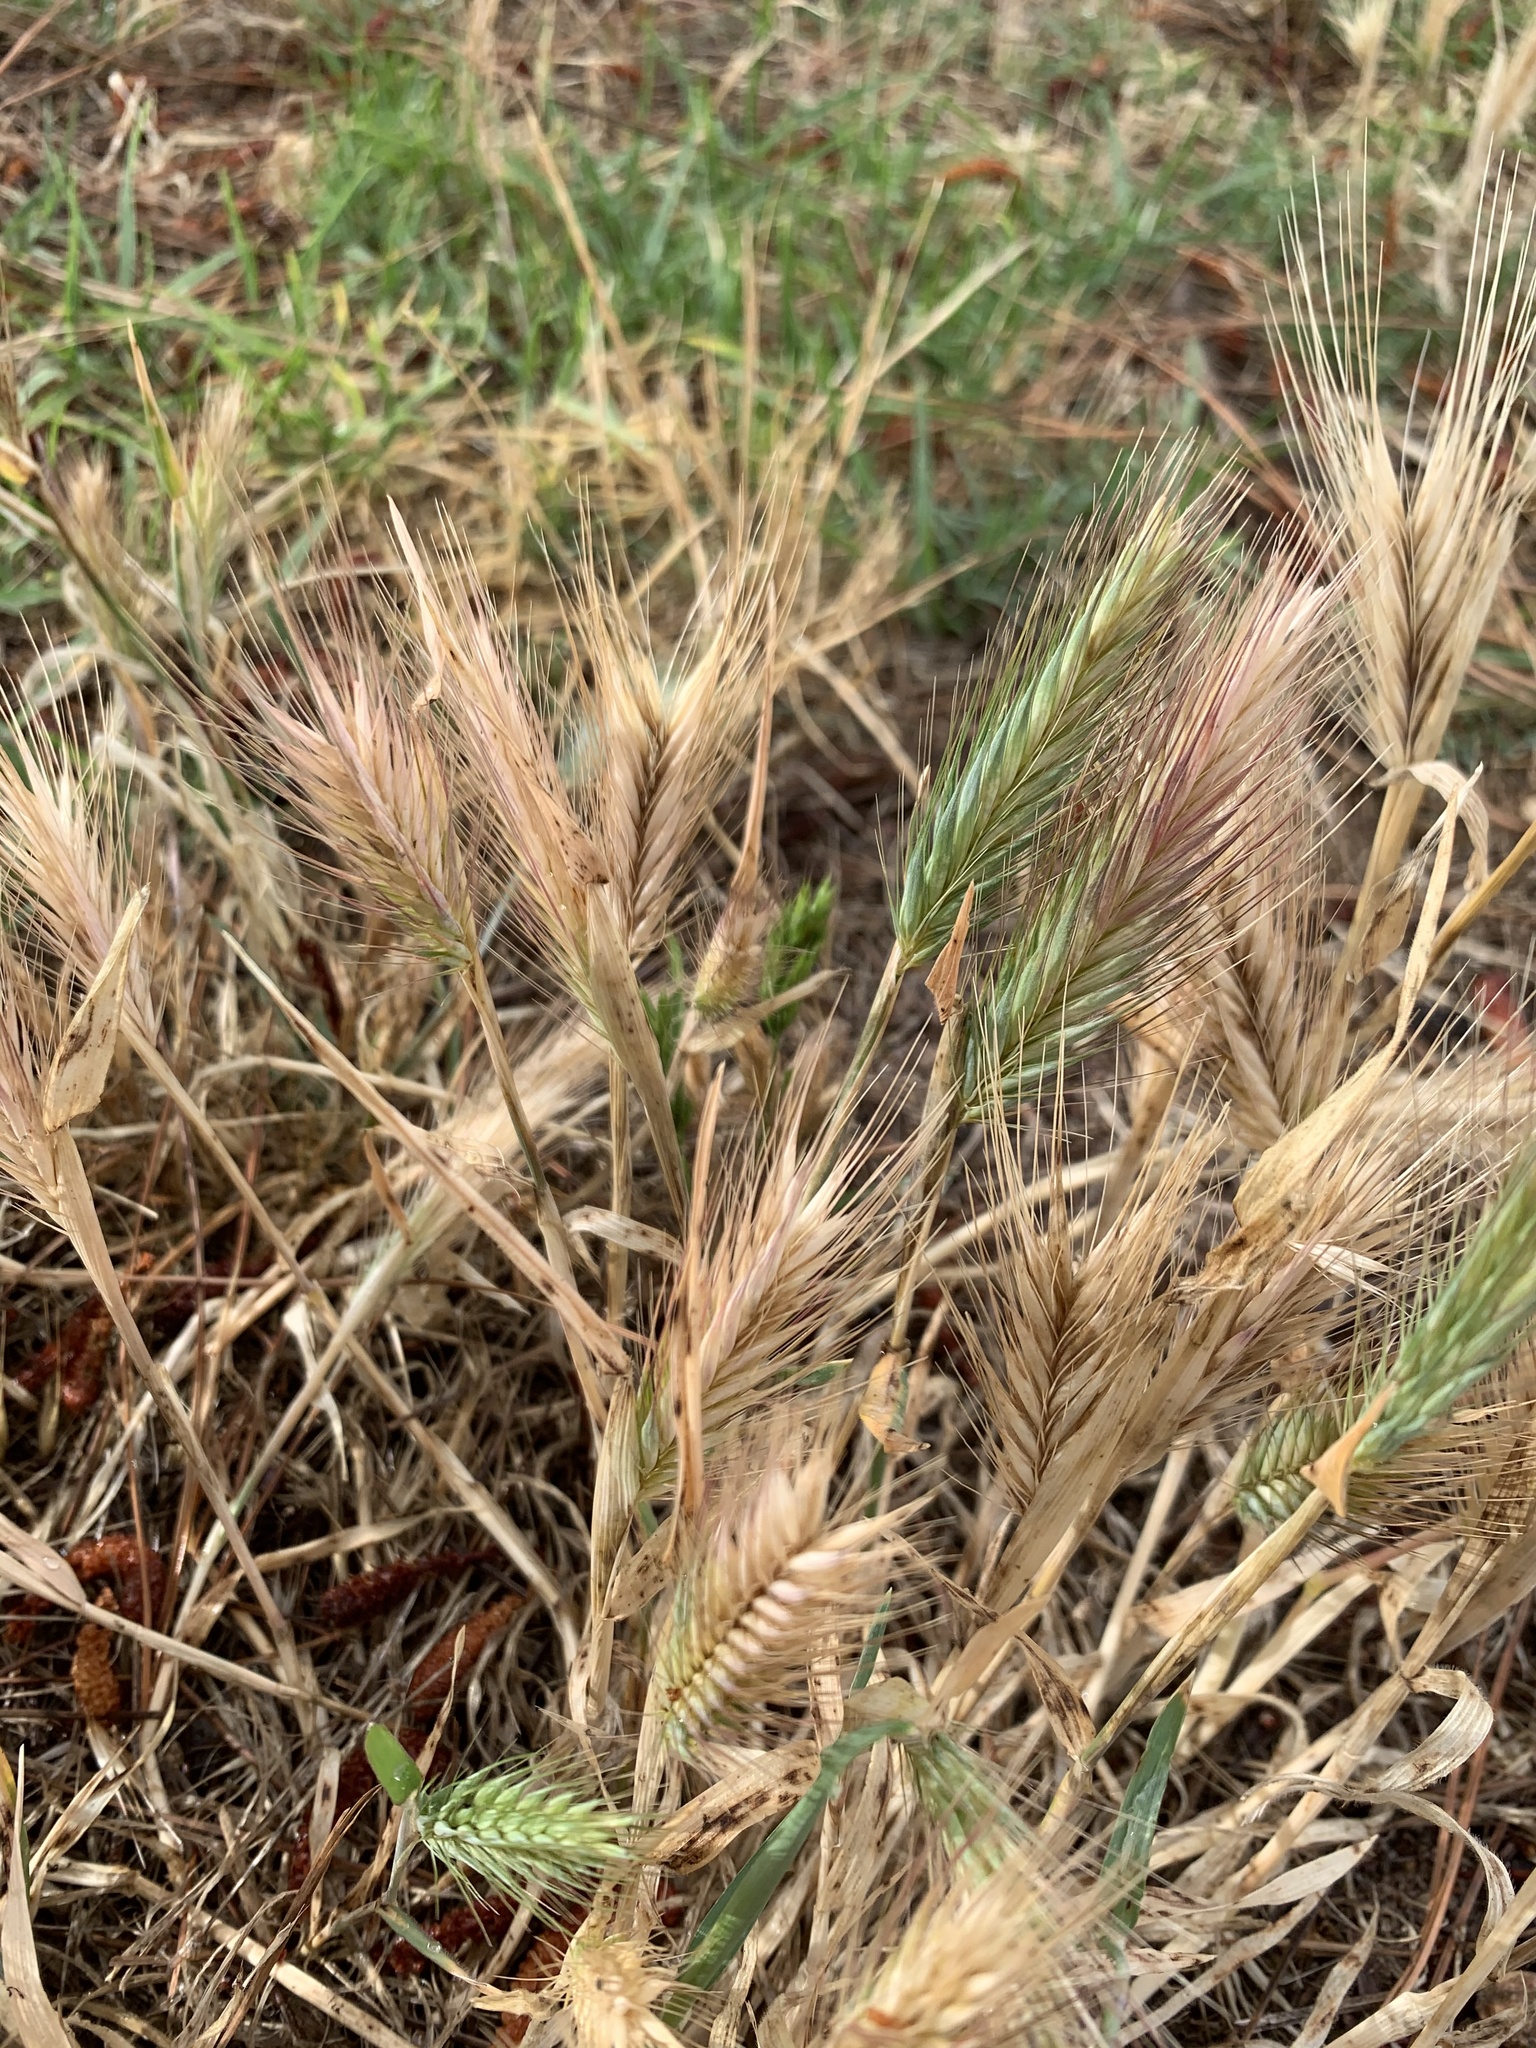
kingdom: Plantae
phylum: Tracheophyta
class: Liliopsida
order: Poales
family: Poaceae
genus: Hordeum
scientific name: Hordeum murinum
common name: Wall barley
